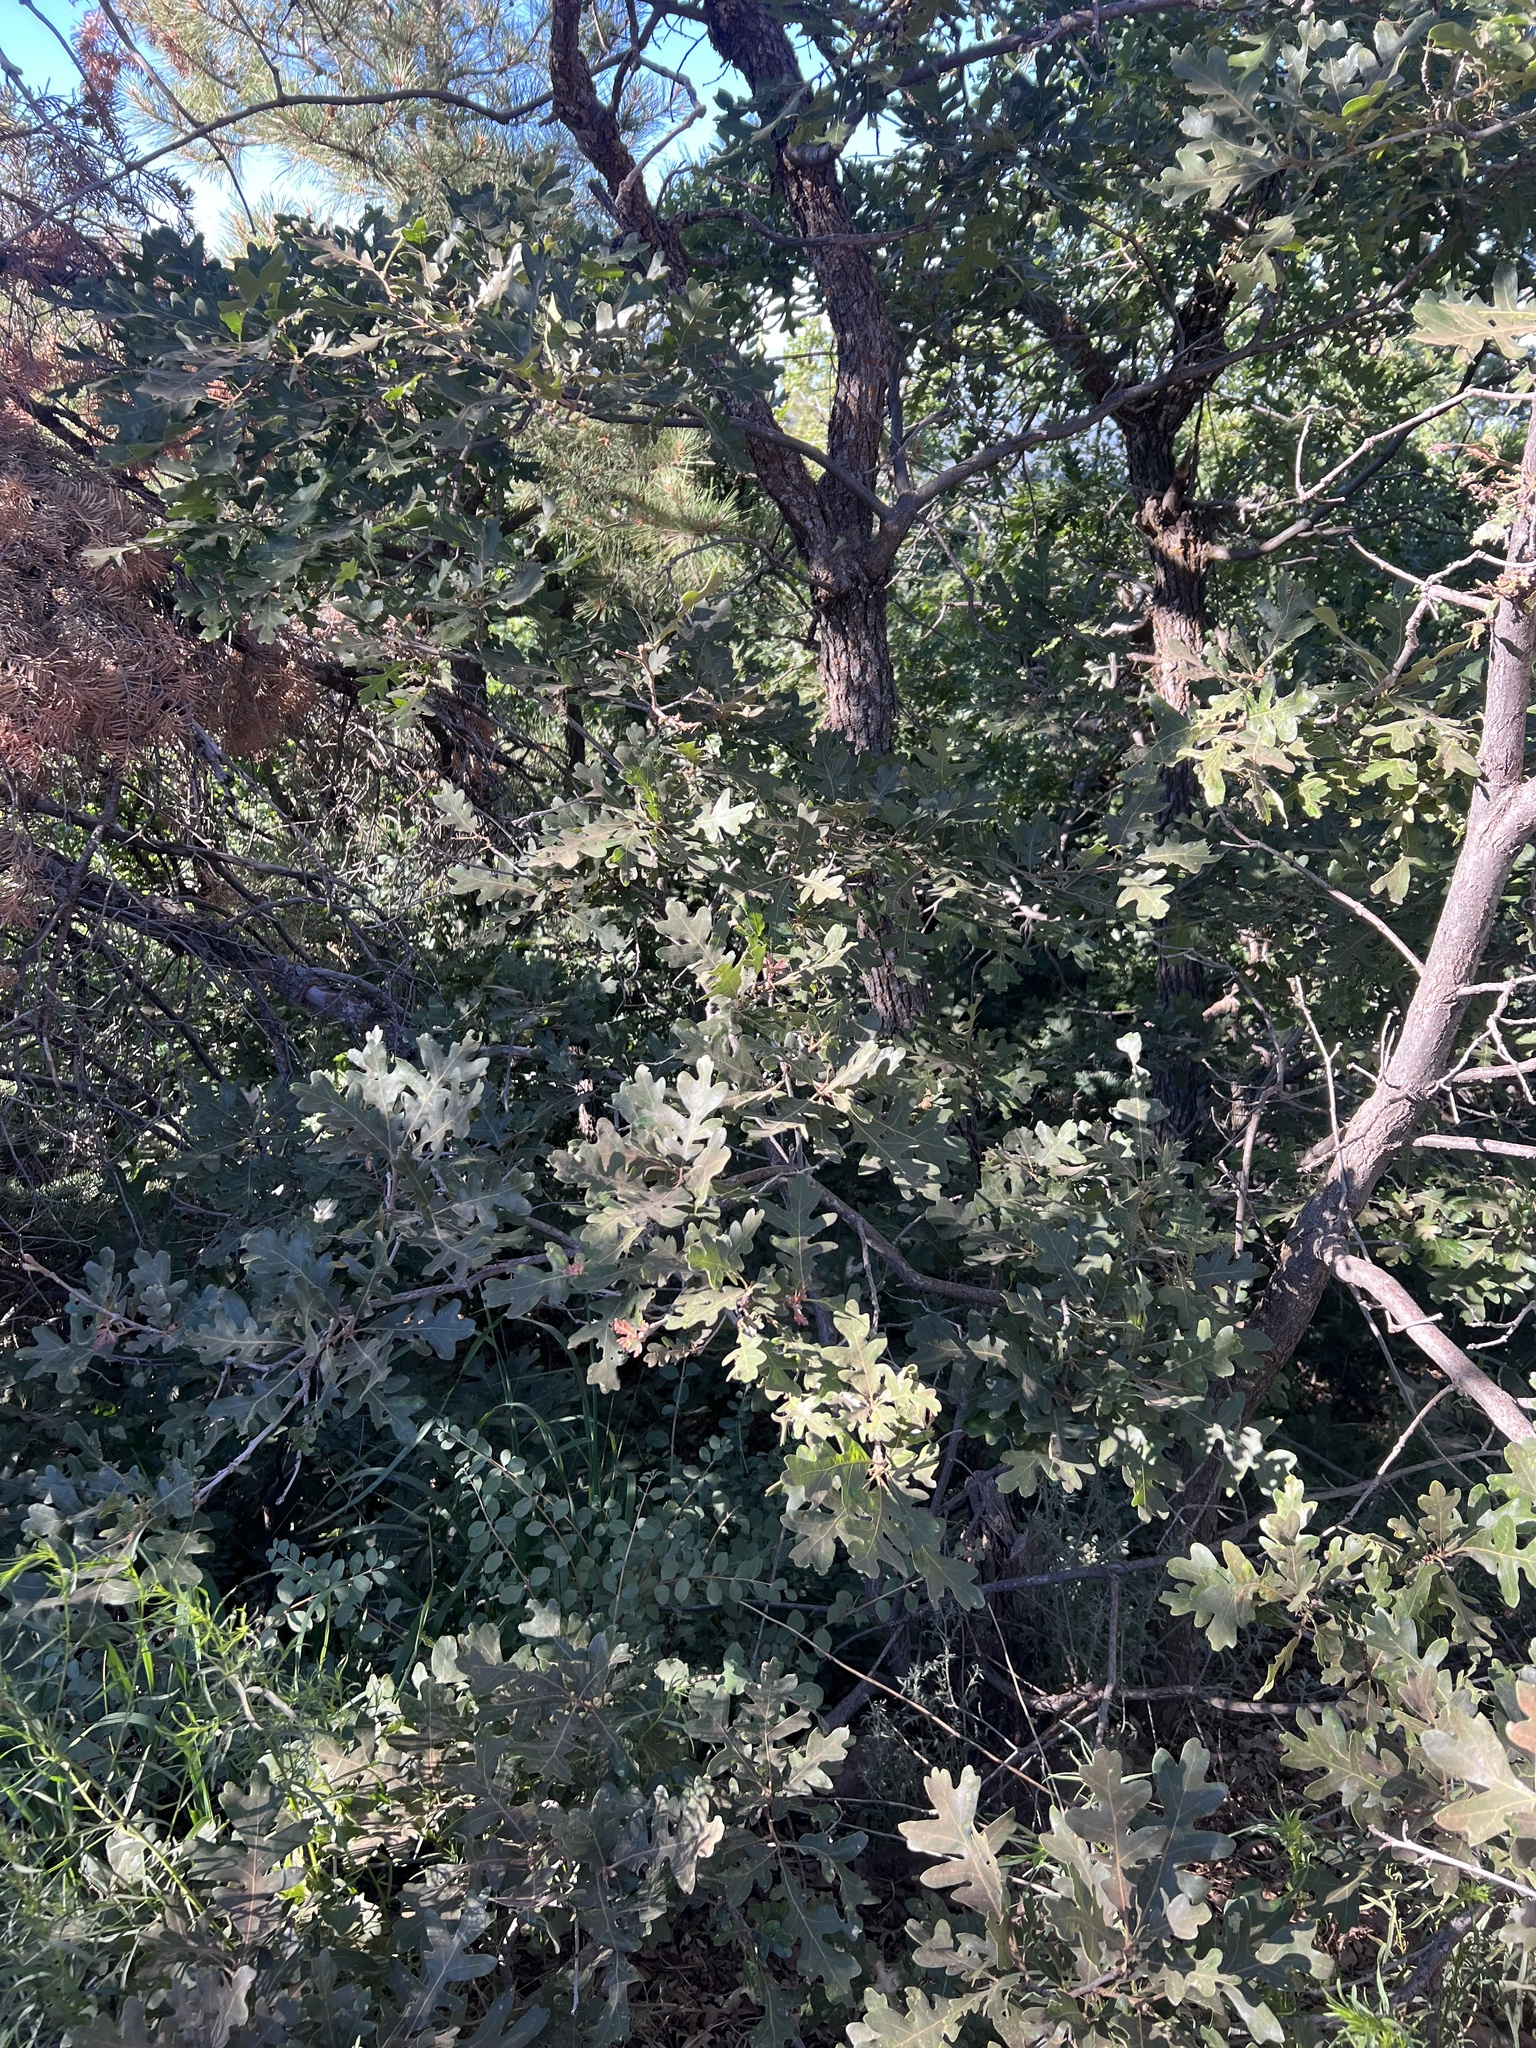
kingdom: Plantae
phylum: Tracheophyta
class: Magnoliopsida
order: Fagales
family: Fagaceae
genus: Quercus
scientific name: Quercus gambelii
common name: Gambel oak
